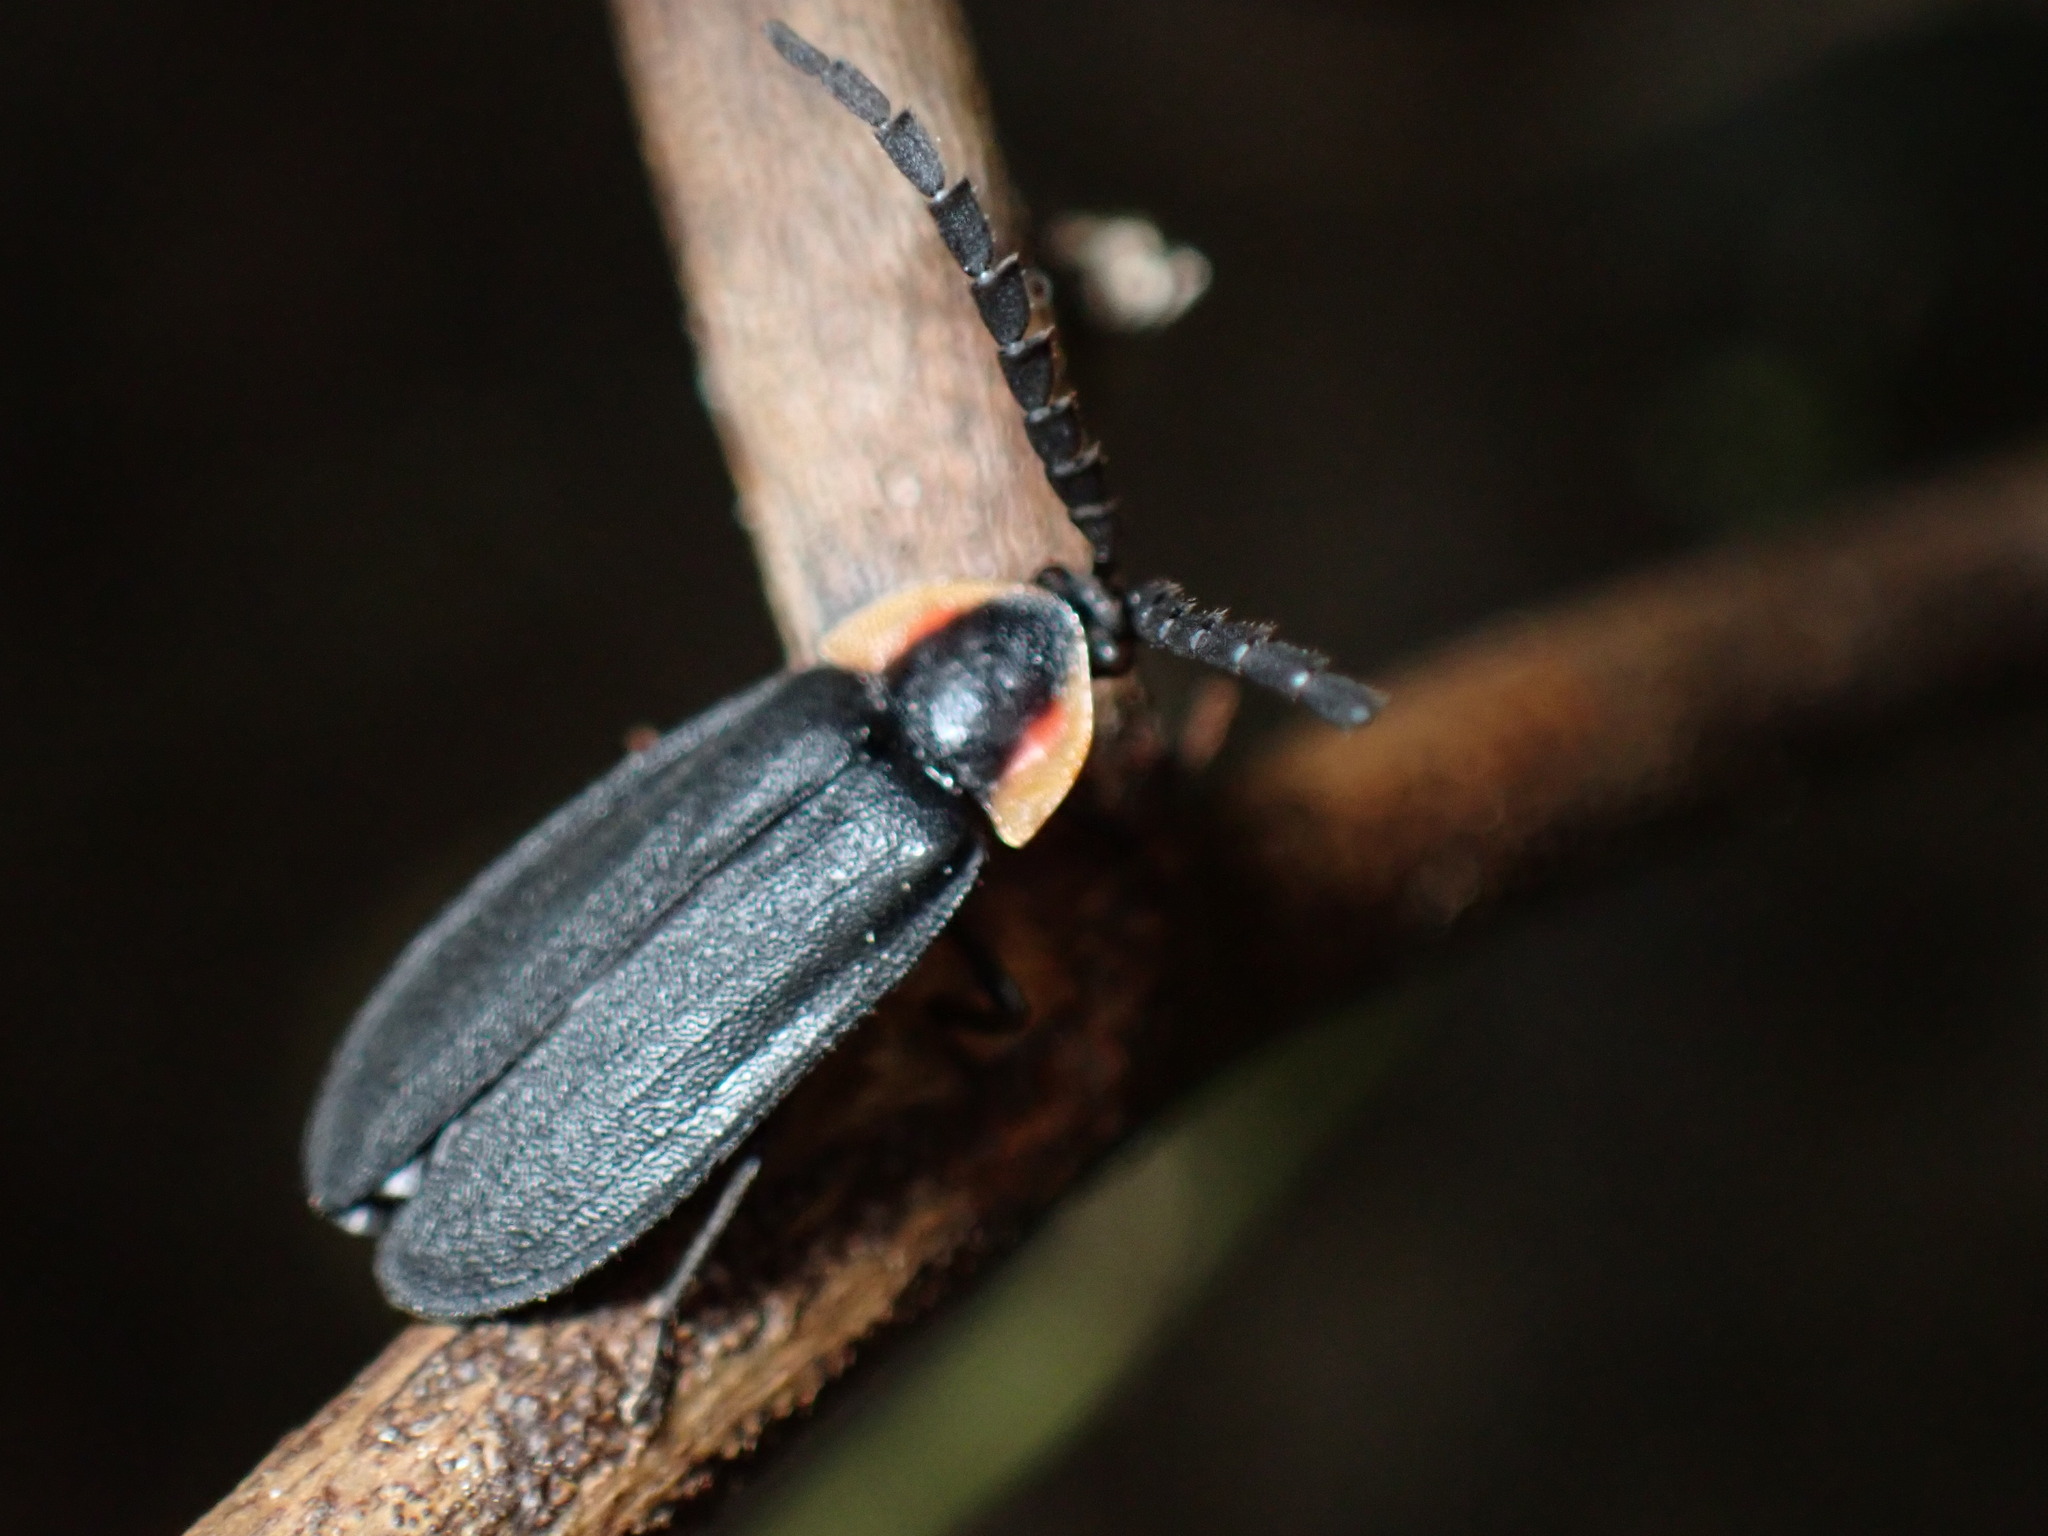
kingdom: Animalia
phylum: Arthropoda
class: Insecta
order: Coleoptera
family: Lampyridae
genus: Lucidota
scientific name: Lucidota atra
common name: Black firefly
